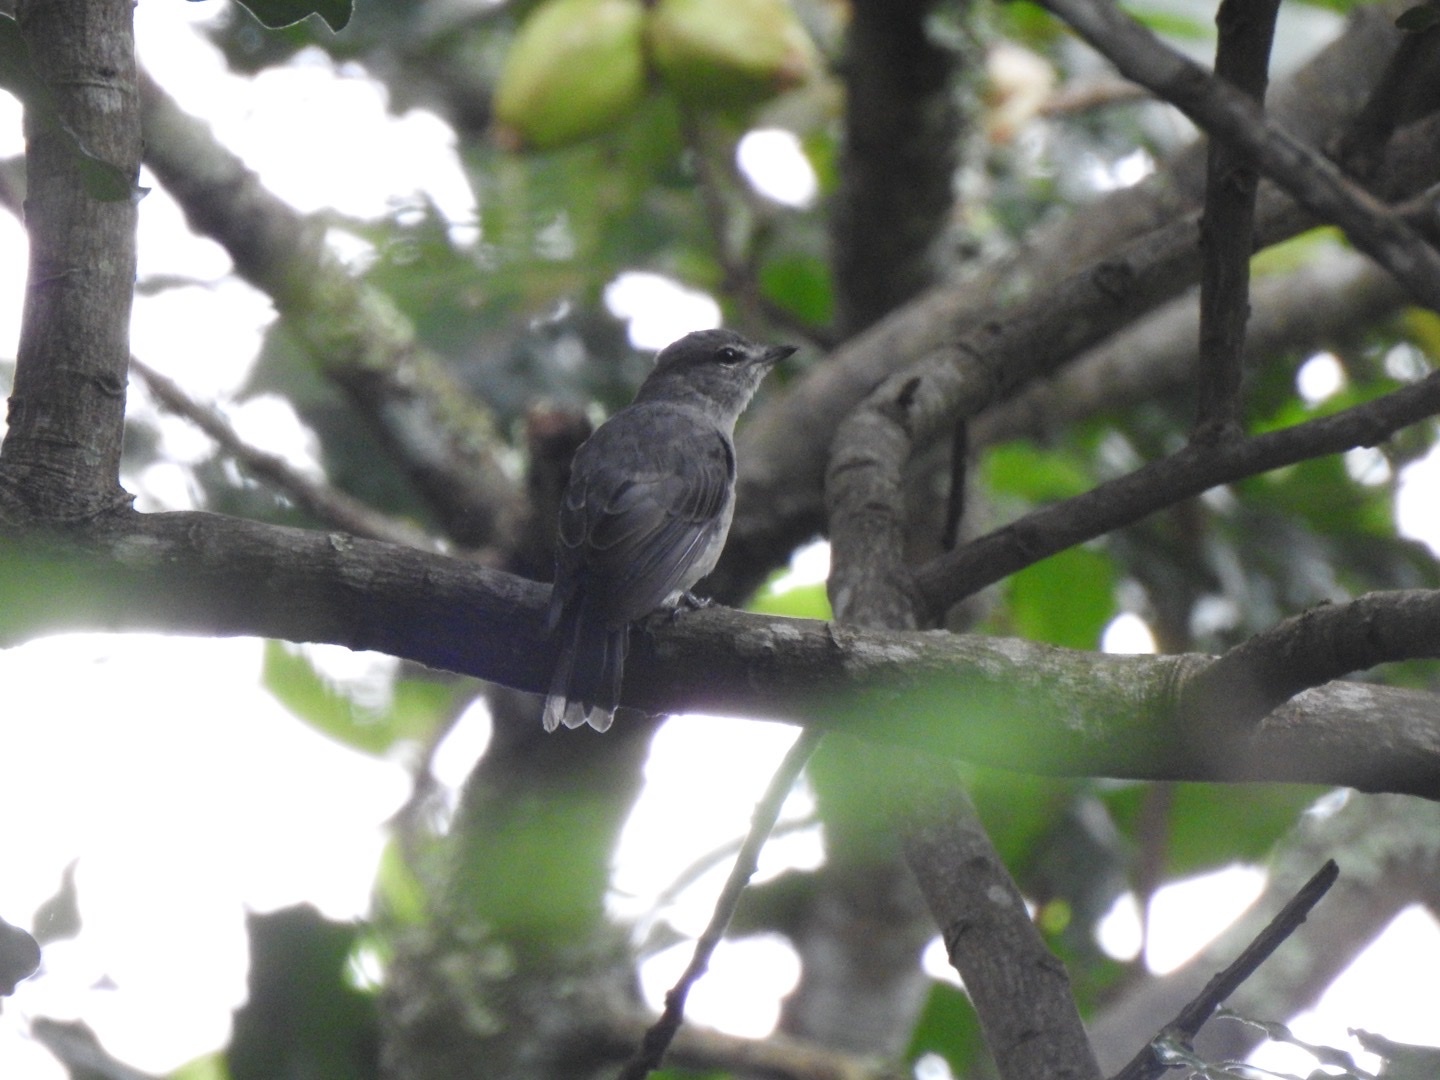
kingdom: Animalia
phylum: Chordata
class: Aves
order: Passeriformes
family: Muscicapidae
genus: Muscicapa
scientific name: Muscicapa caerulescens
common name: Ashy flycatcher
